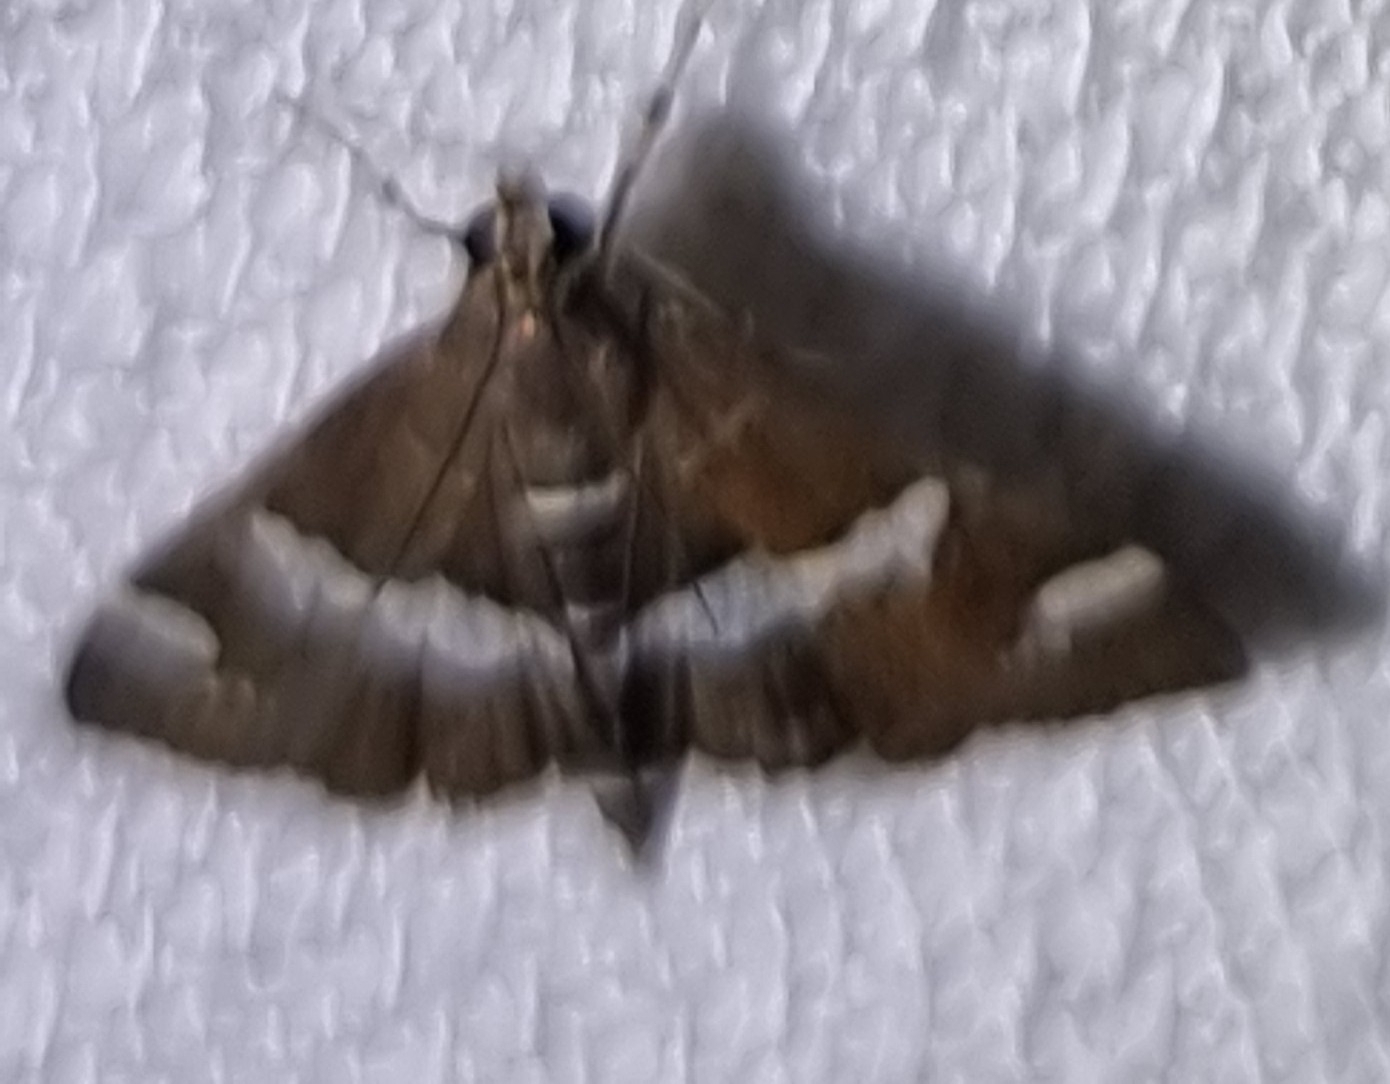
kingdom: Animalia
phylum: Arthropoda
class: Insecta
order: Lepidoptera
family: Crambidae
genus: Spoladea
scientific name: Spoladea recurvalis
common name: Beet webworm moth
